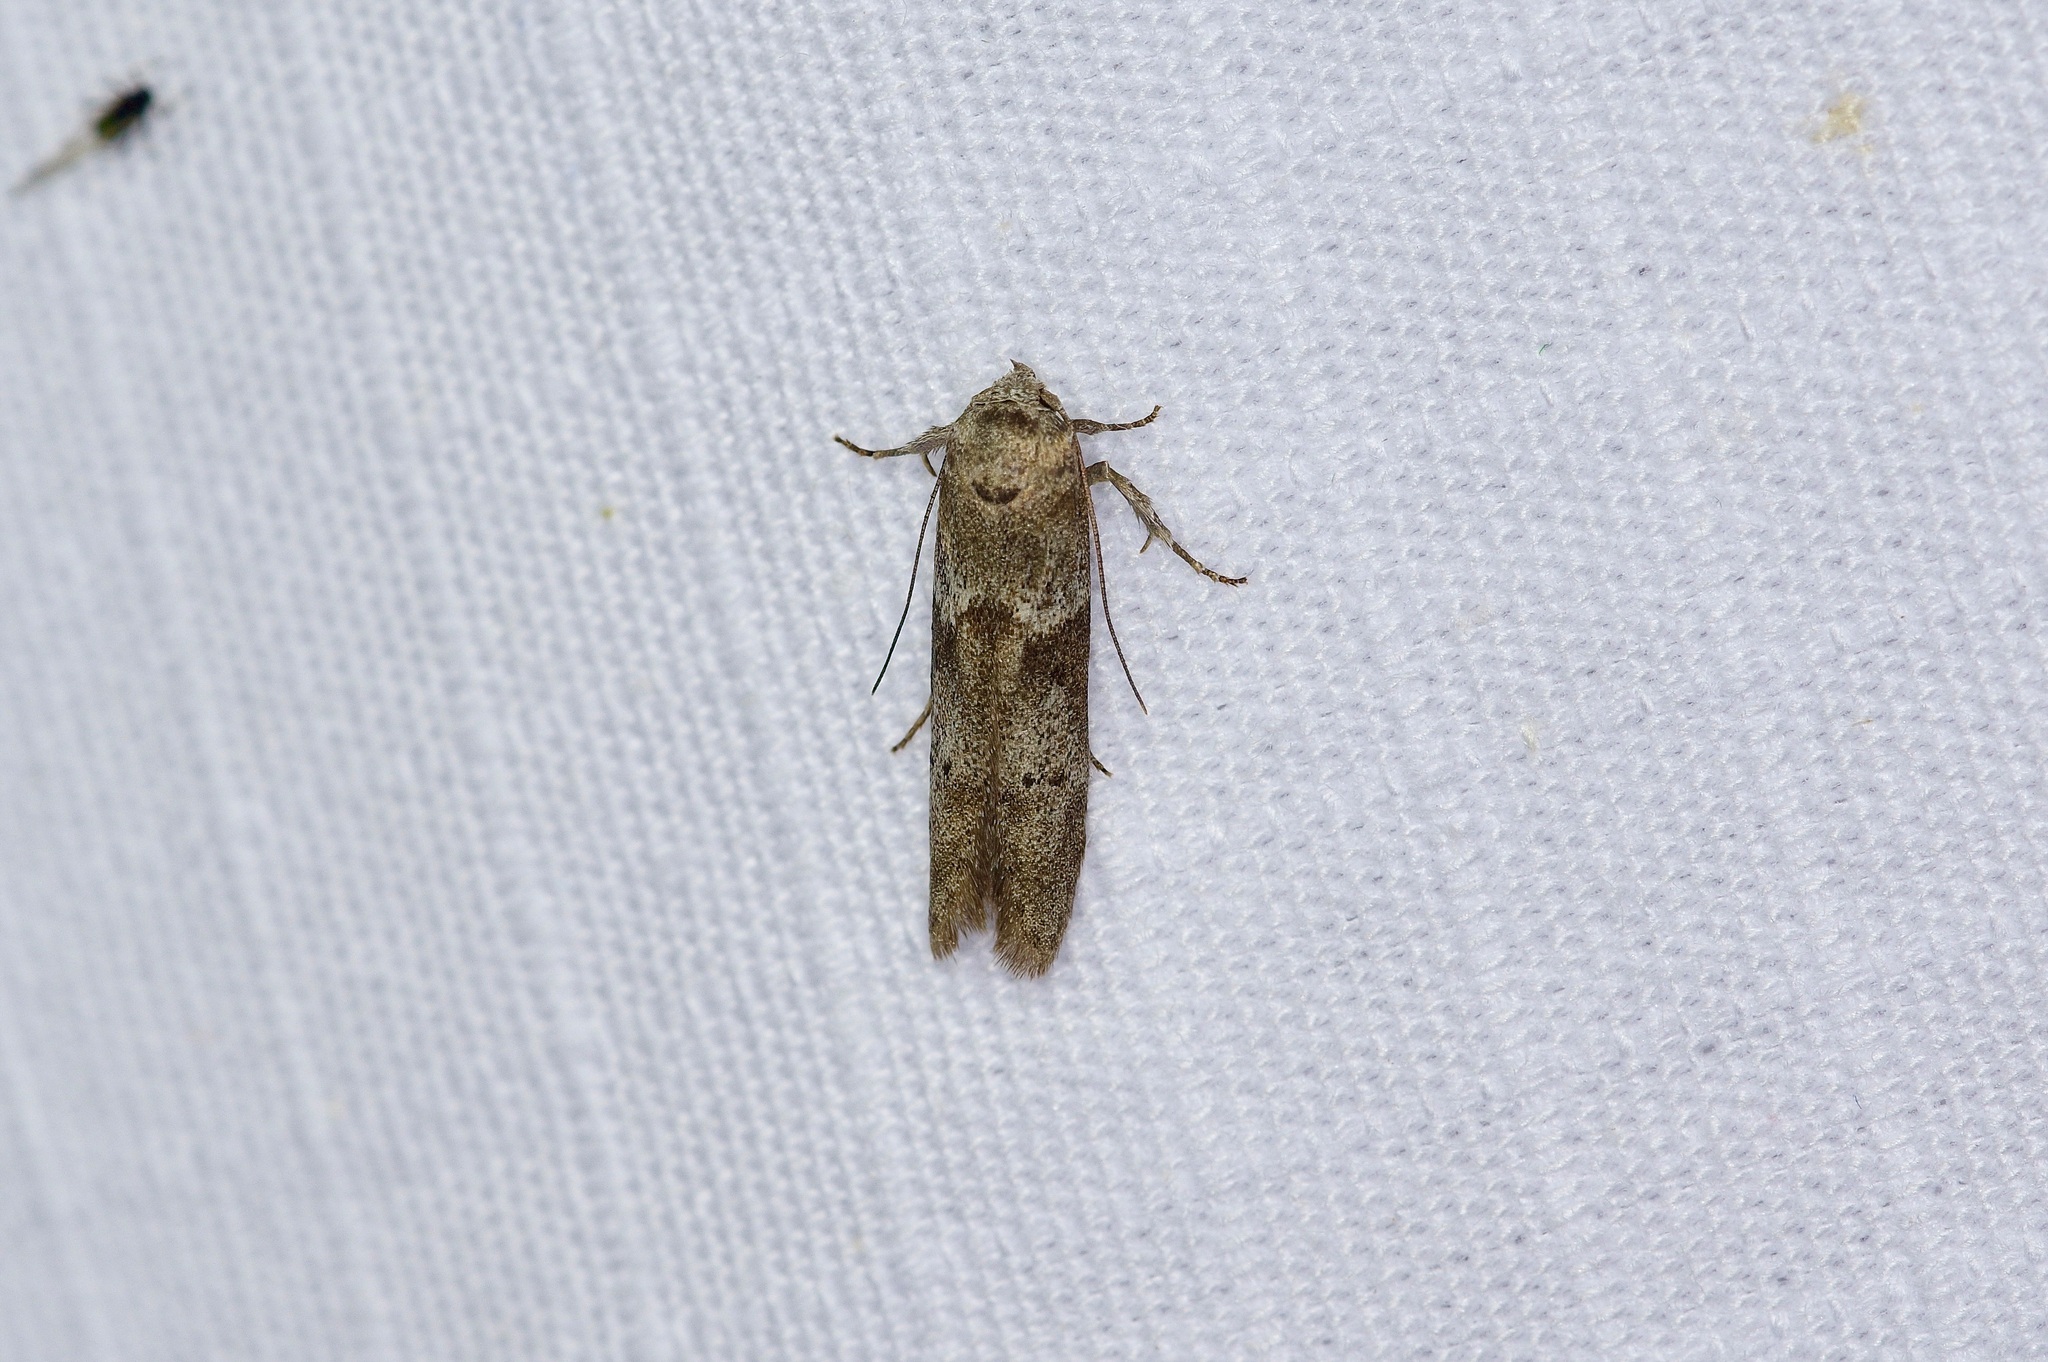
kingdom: Animalia
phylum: Arthropoda
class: Insecta
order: Lepidoptera
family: Blastobasidae
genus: Blastobasis
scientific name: Blastobasis glandulella
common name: Acorn moth
